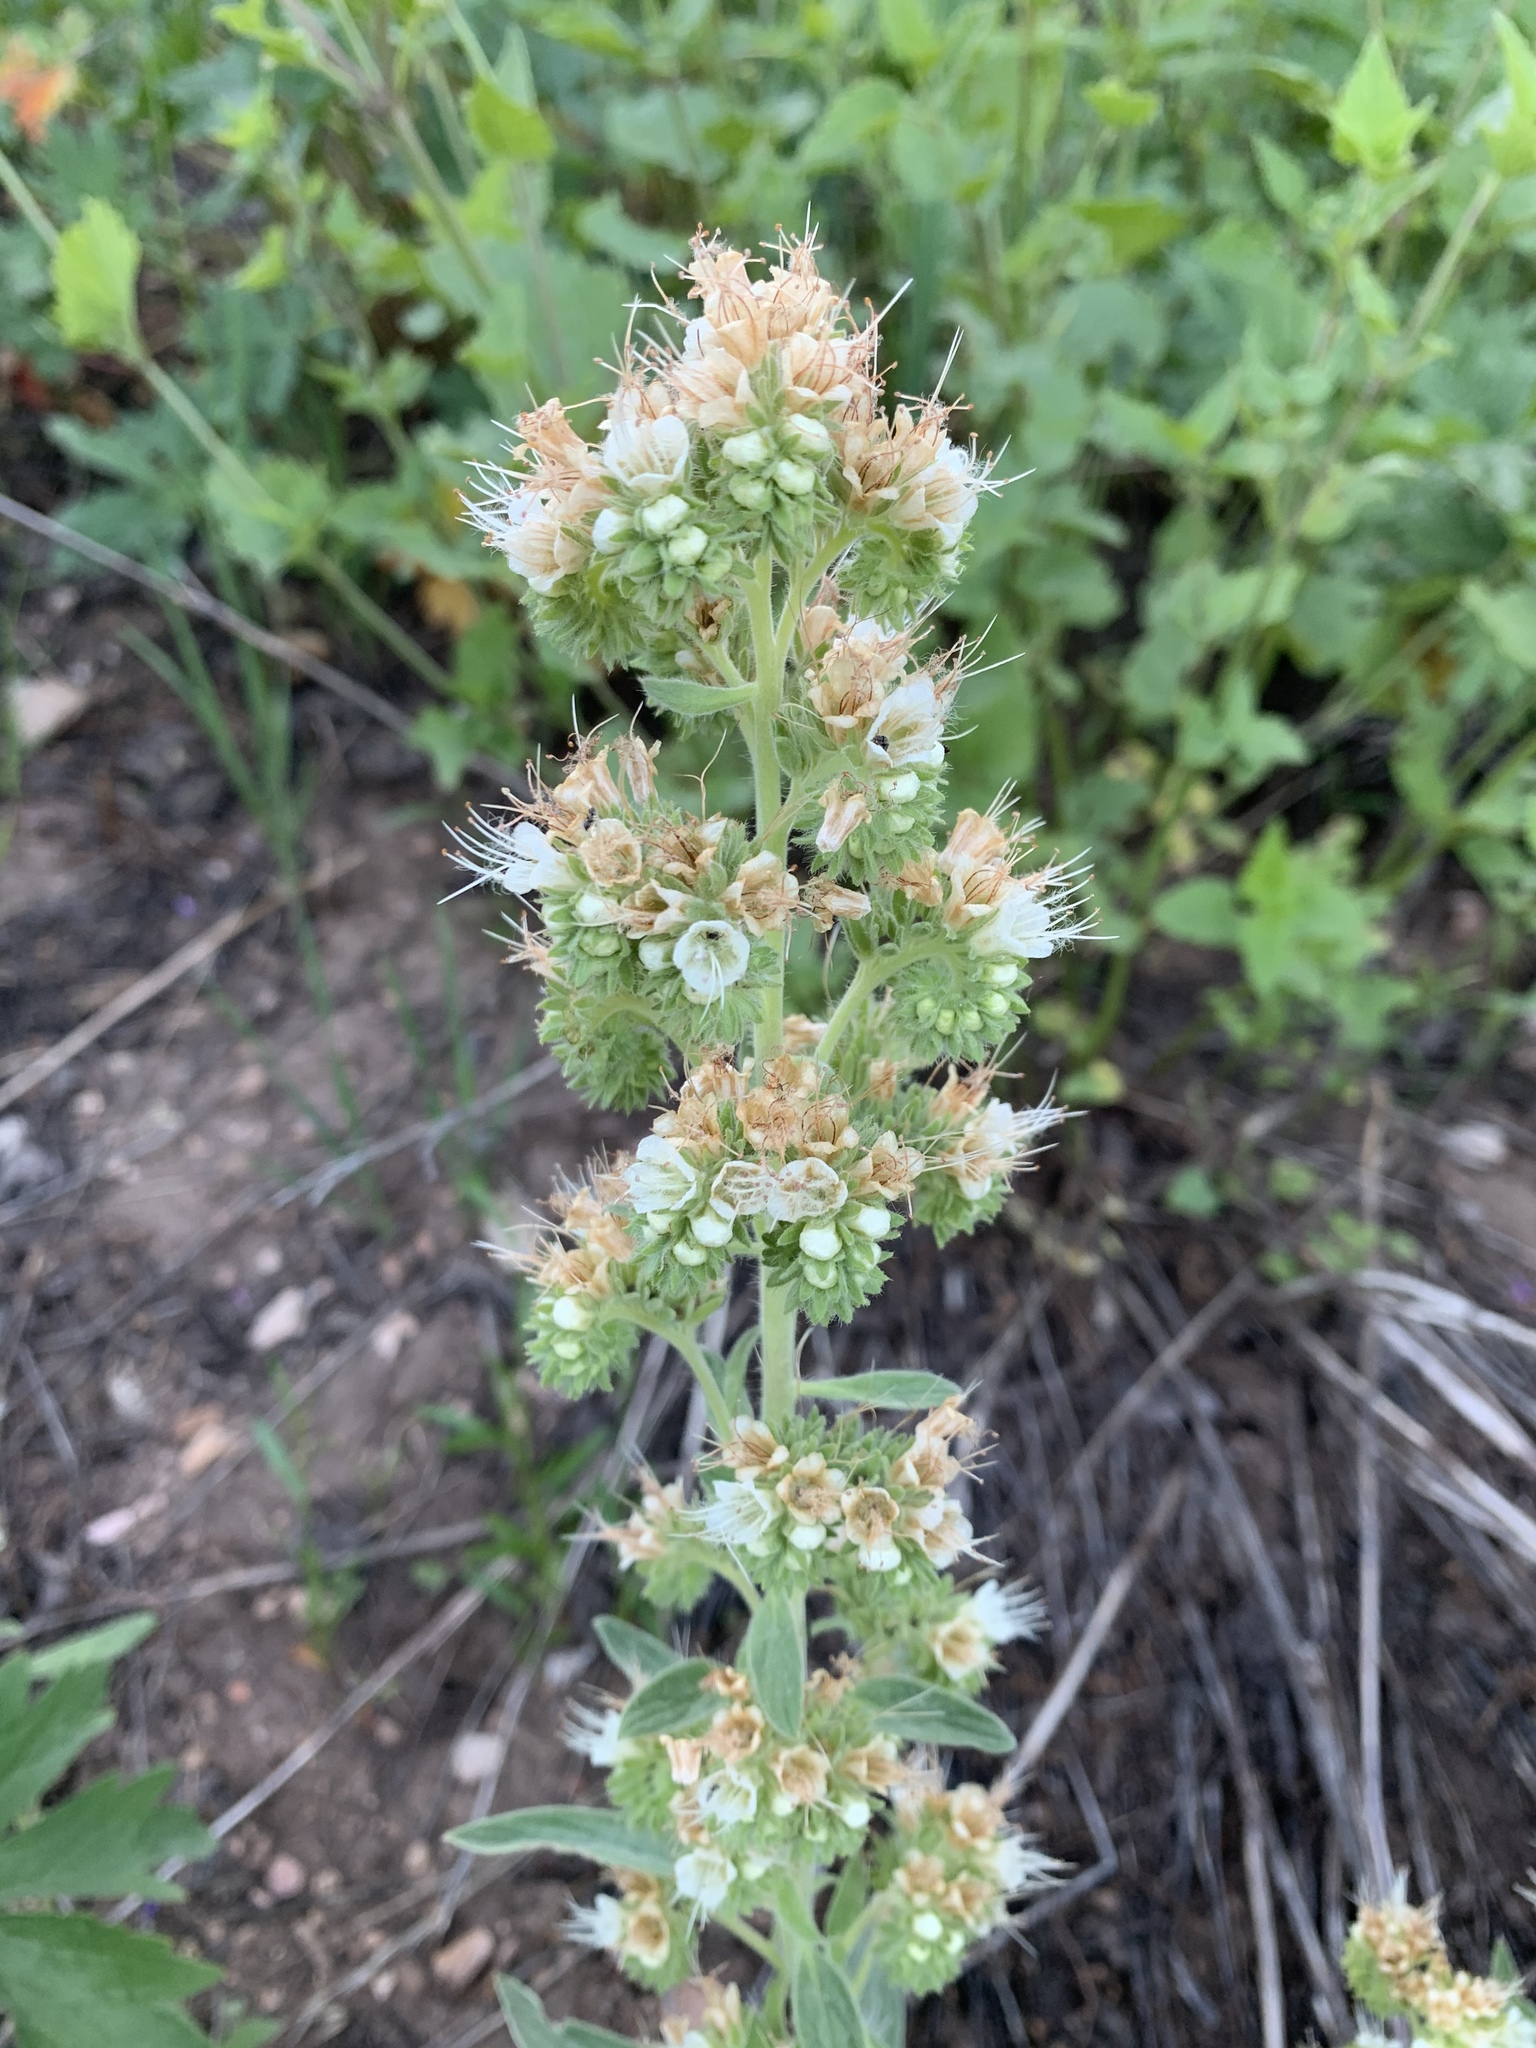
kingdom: Plantae
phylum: Tracheophyta
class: Magnoliopsida
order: Boraginales
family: Hydrophyllaceae
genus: Phacelia
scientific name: Phacelia hastata
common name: Silver-leaved phacelia
